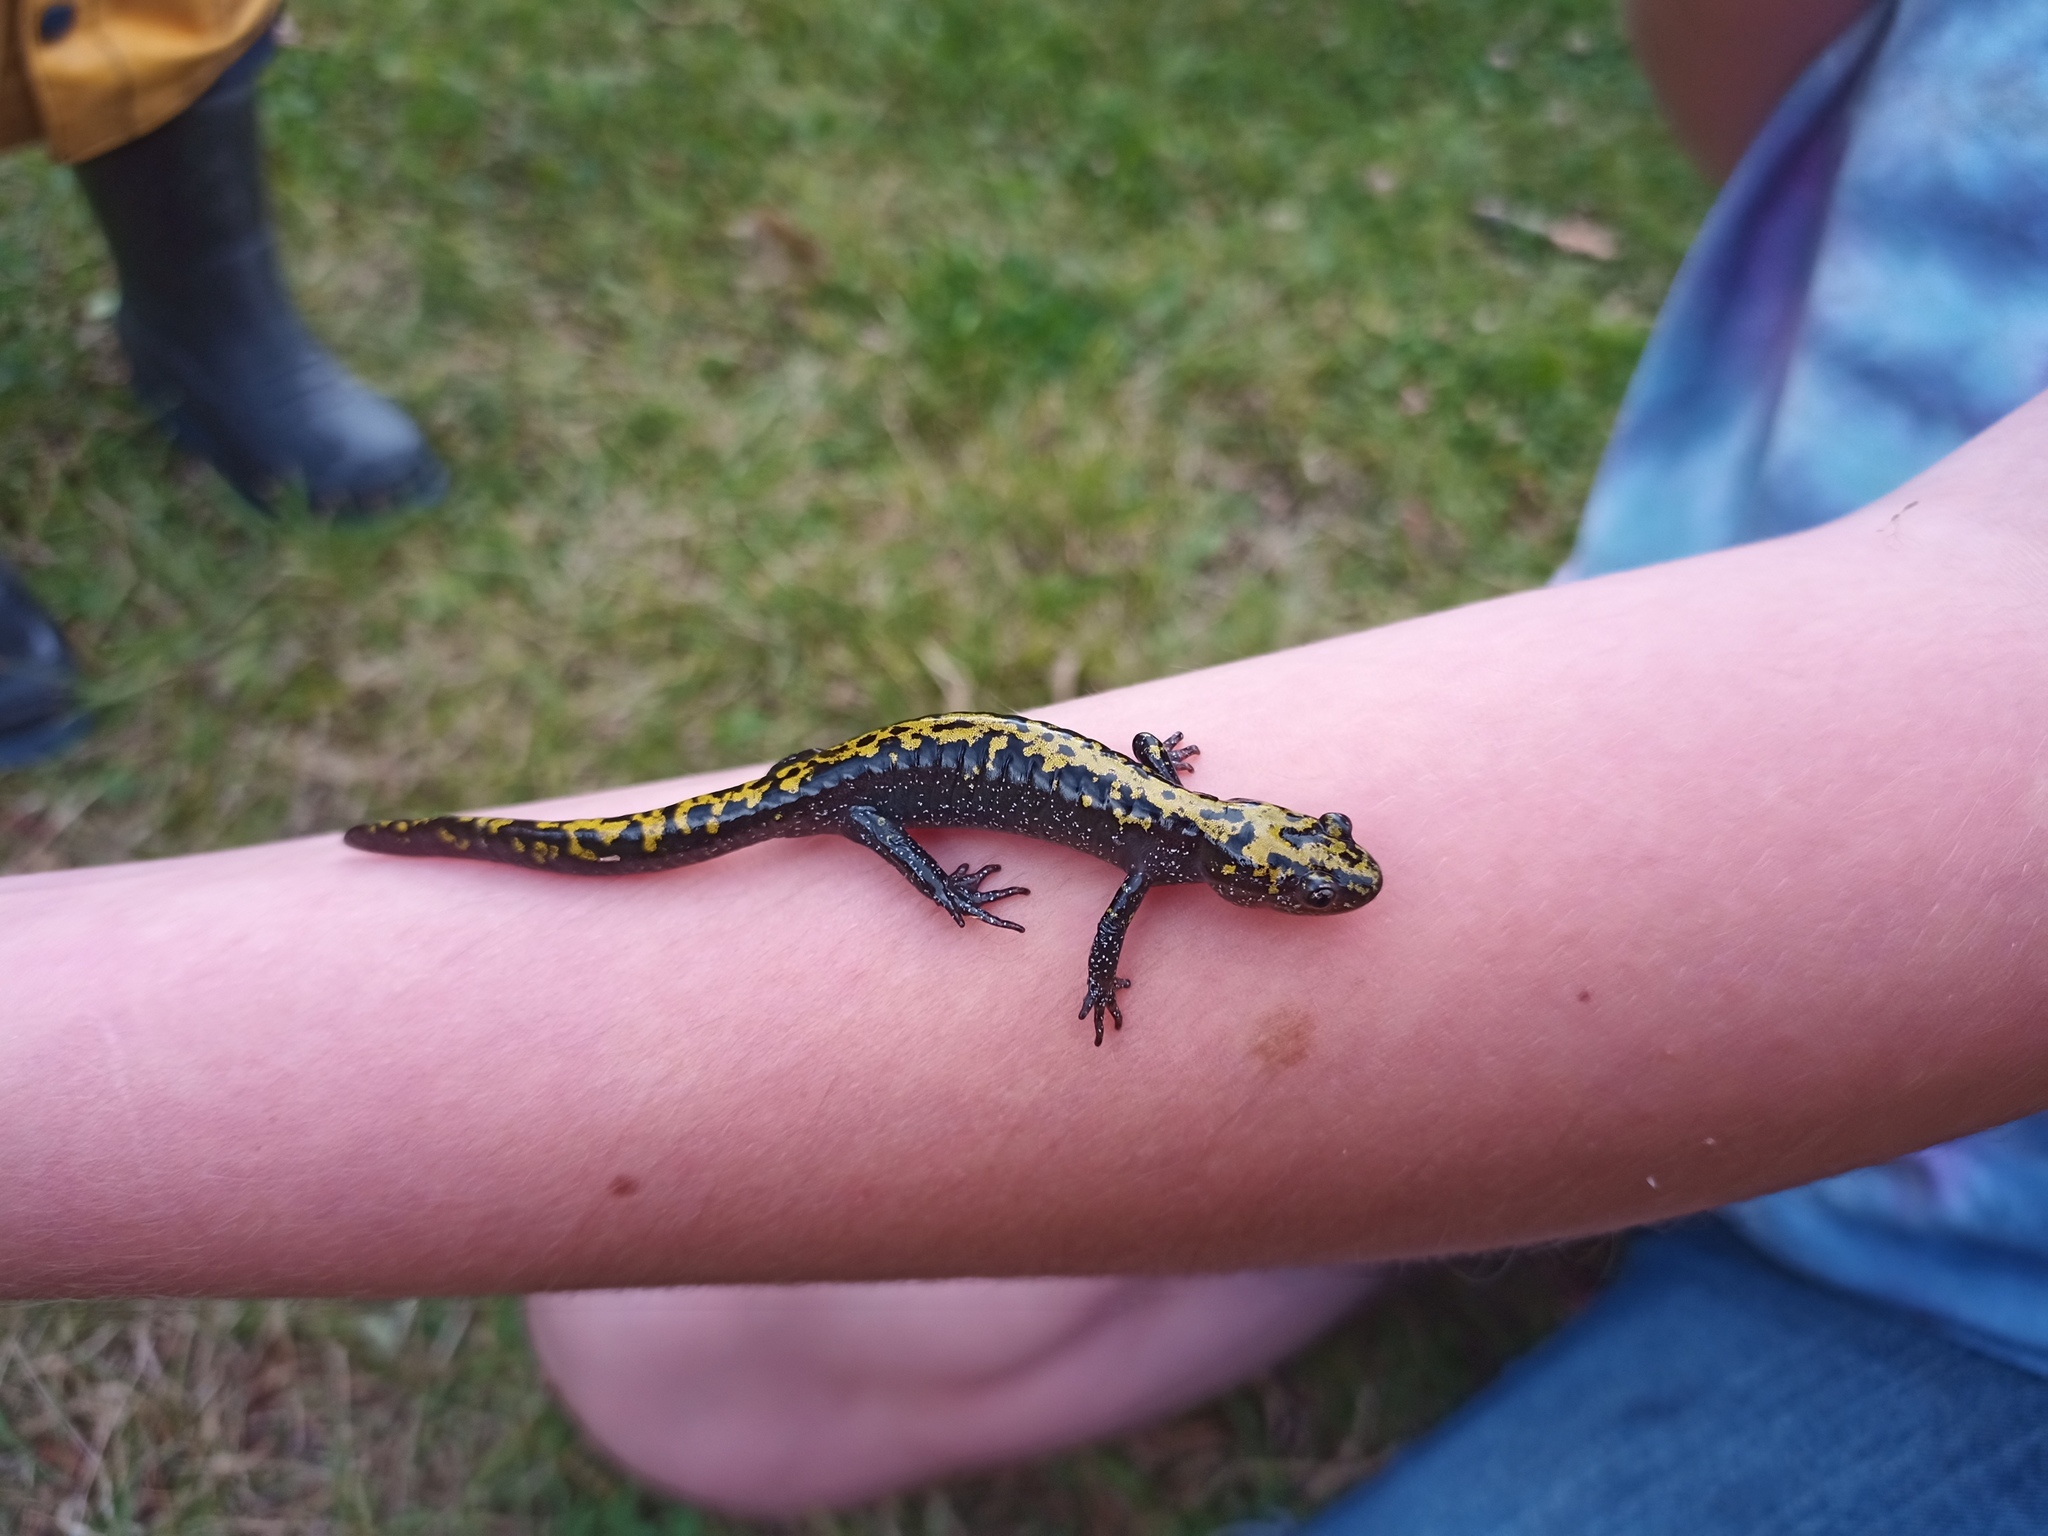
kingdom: Animalia
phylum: Chordata
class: Amphibia
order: Caudata
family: Ambystomatidae
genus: Ambystoma
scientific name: Ambystoma macrodactylum
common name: Long-toed salamander
